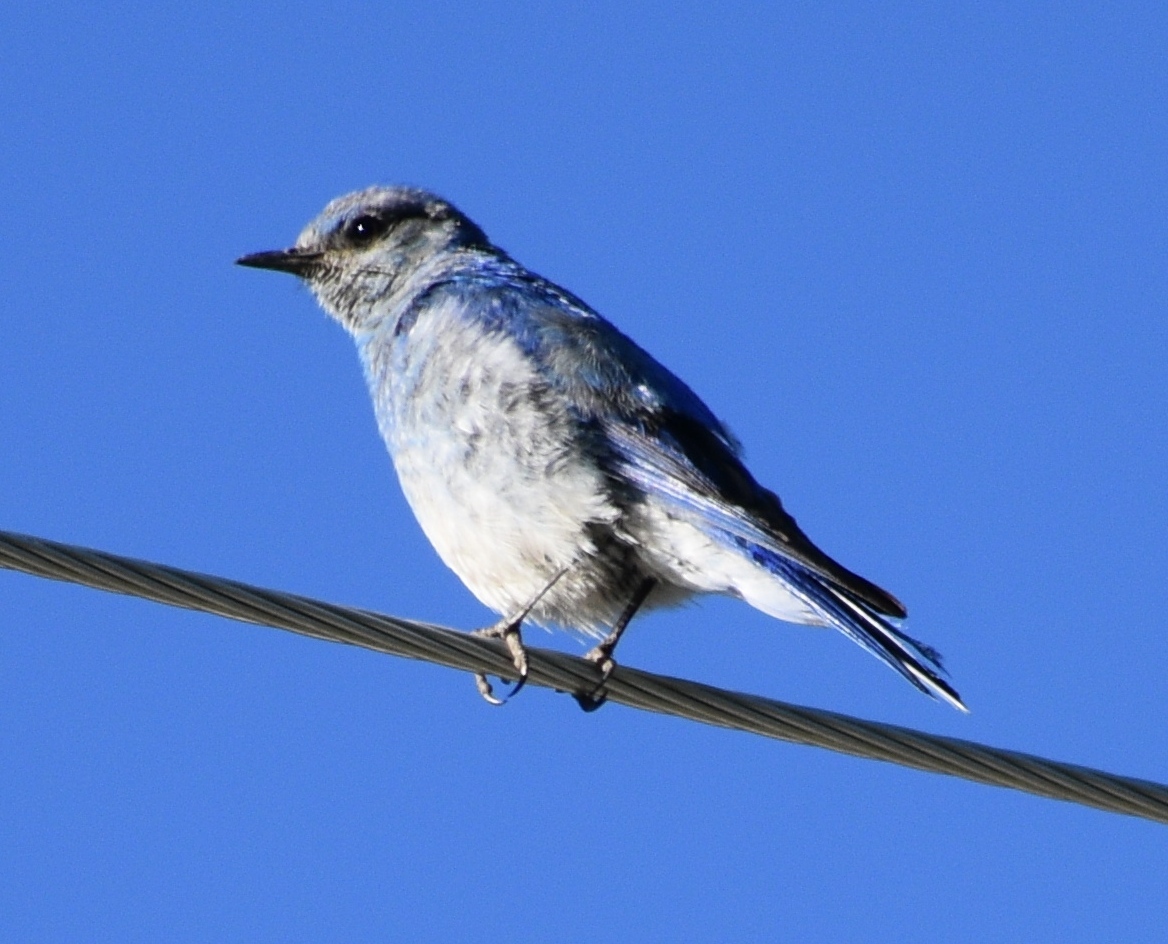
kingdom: Animalia
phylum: Chordata
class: Aves
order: Passeriformes
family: Turdidae
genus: Sialia
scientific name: Sialia currucoides
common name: Mountain bluebird
